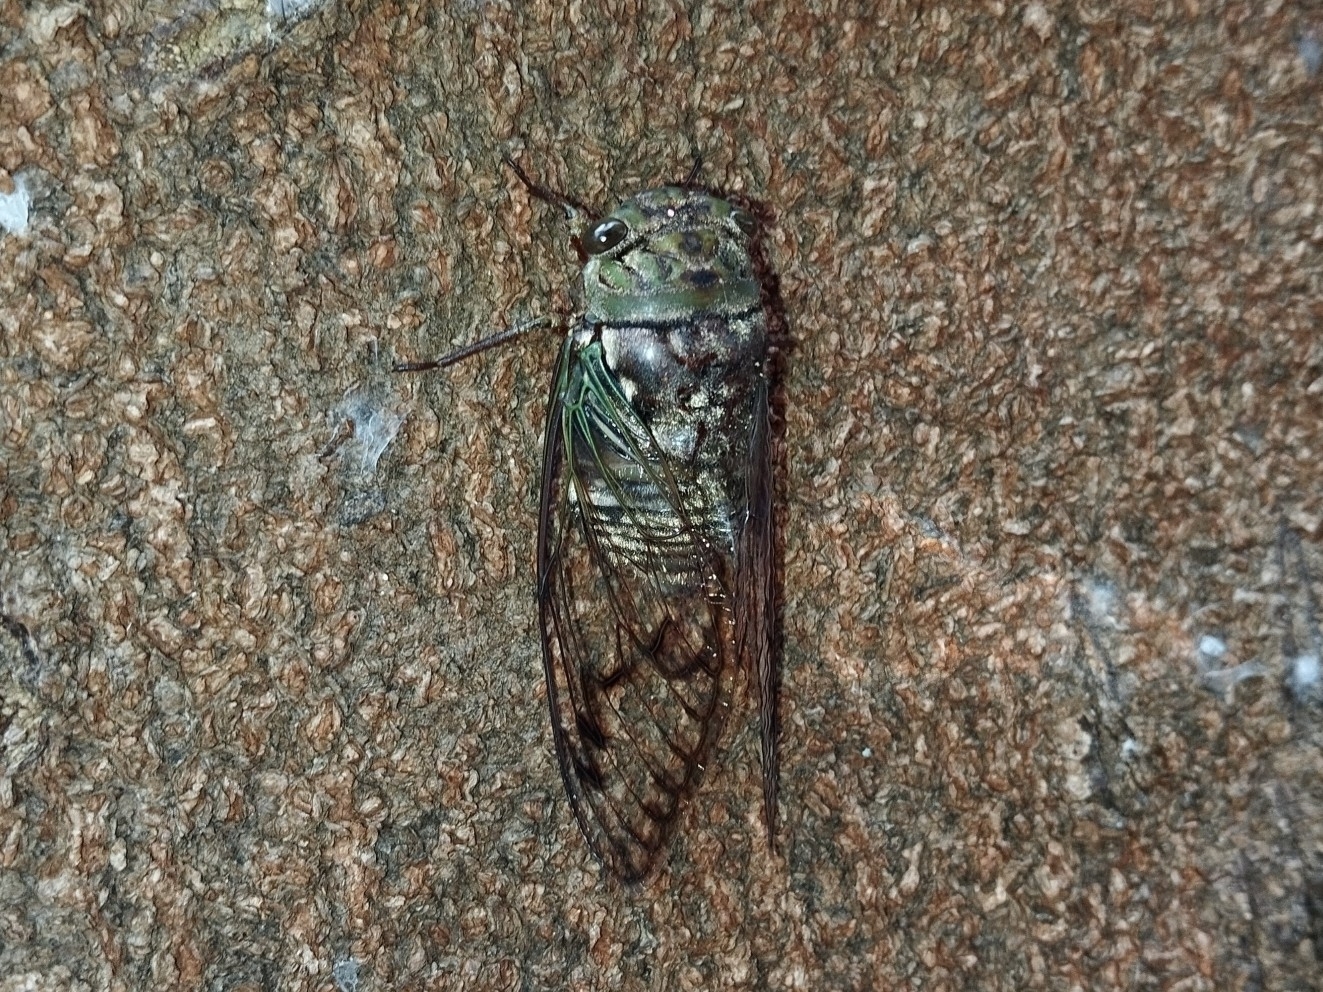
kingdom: Animalia
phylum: Arthropoda
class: Insecta
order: Hemiptera
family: Cicadidae
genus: Fidicina
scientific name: Fidicina toulgoeti
